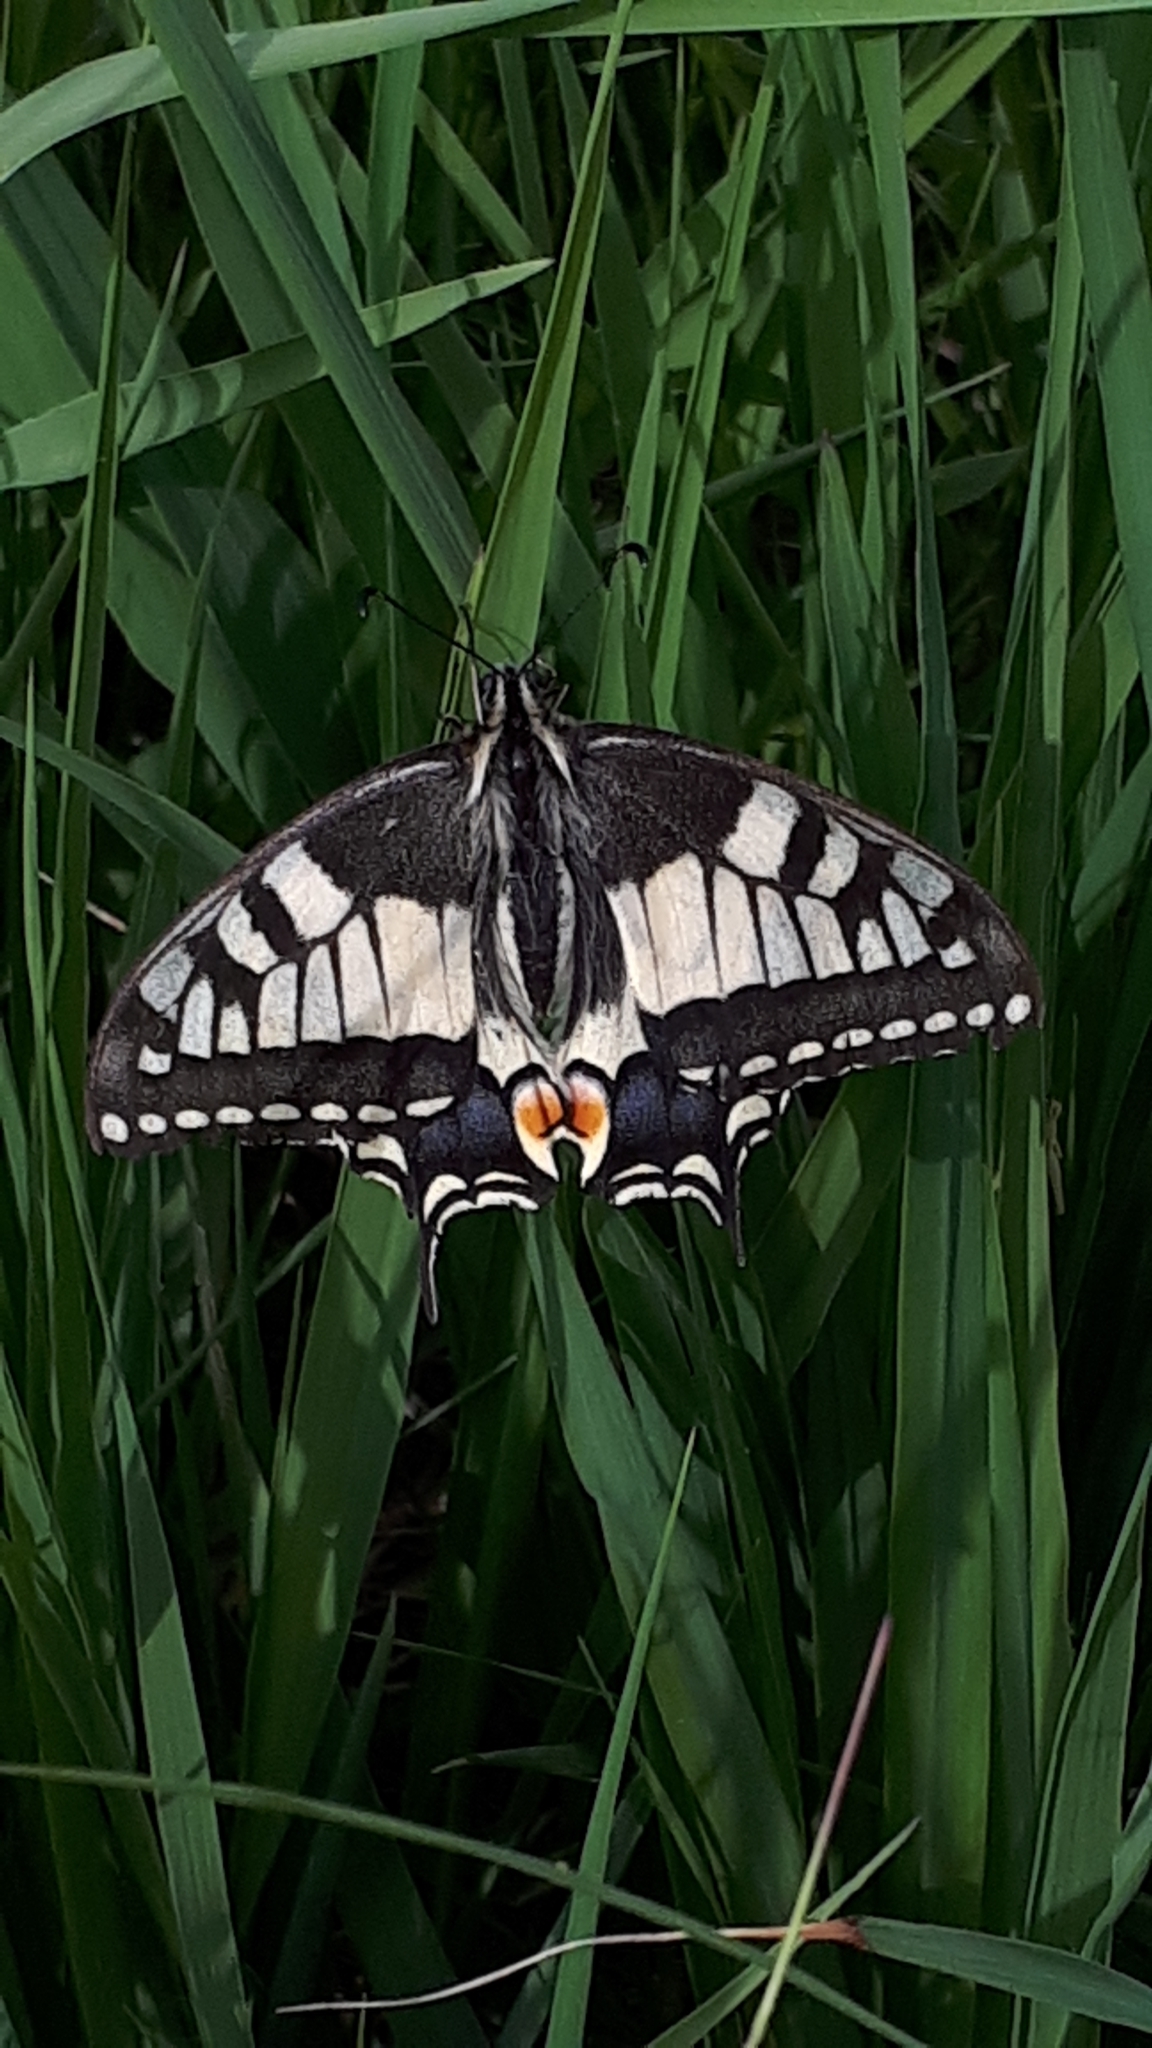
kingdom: Animalia
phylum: Arthropoda
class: Insecta
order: Lepidoptera
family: Papilionidae
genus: Papilio
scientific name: Papilio machaon
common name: Swallowtail
